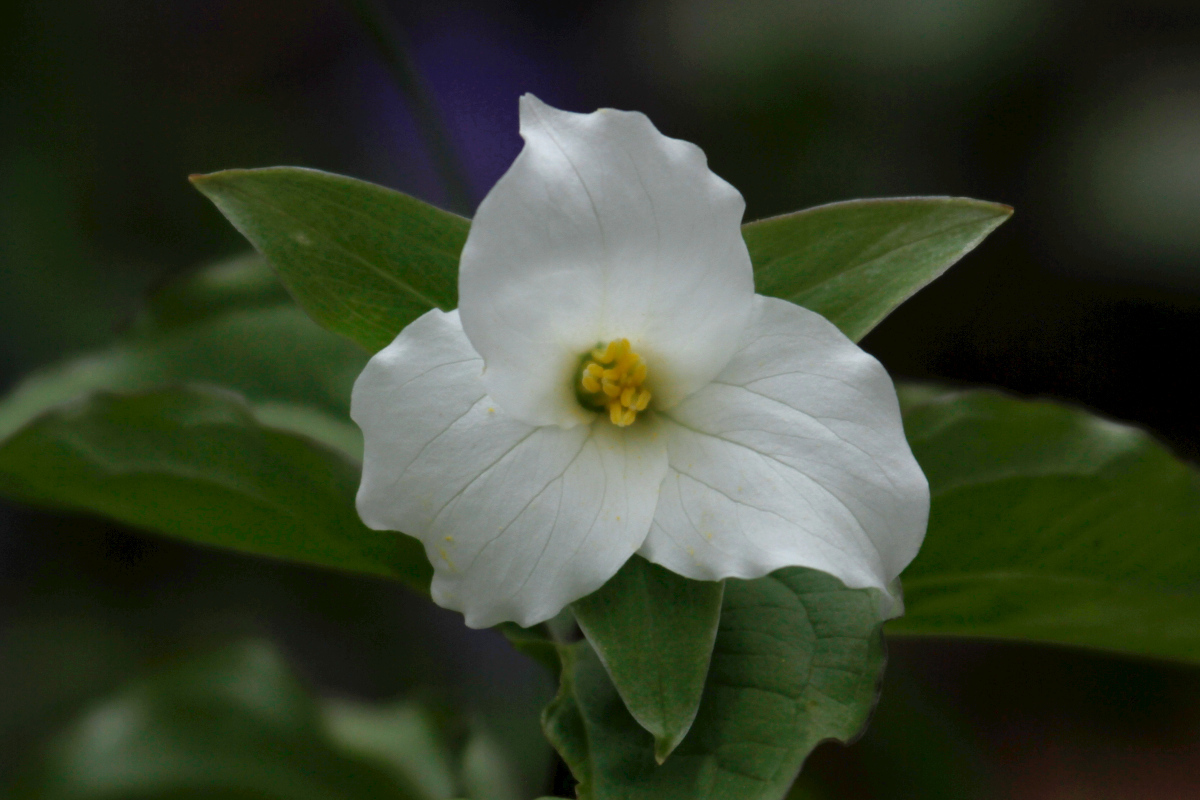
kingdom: Plantae
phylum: Tracheophyta
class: Liliopsida
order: Liliales
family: Melanthiaceae
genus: Trillium
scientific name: Trillium grandiflorum
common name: Great white trillium
